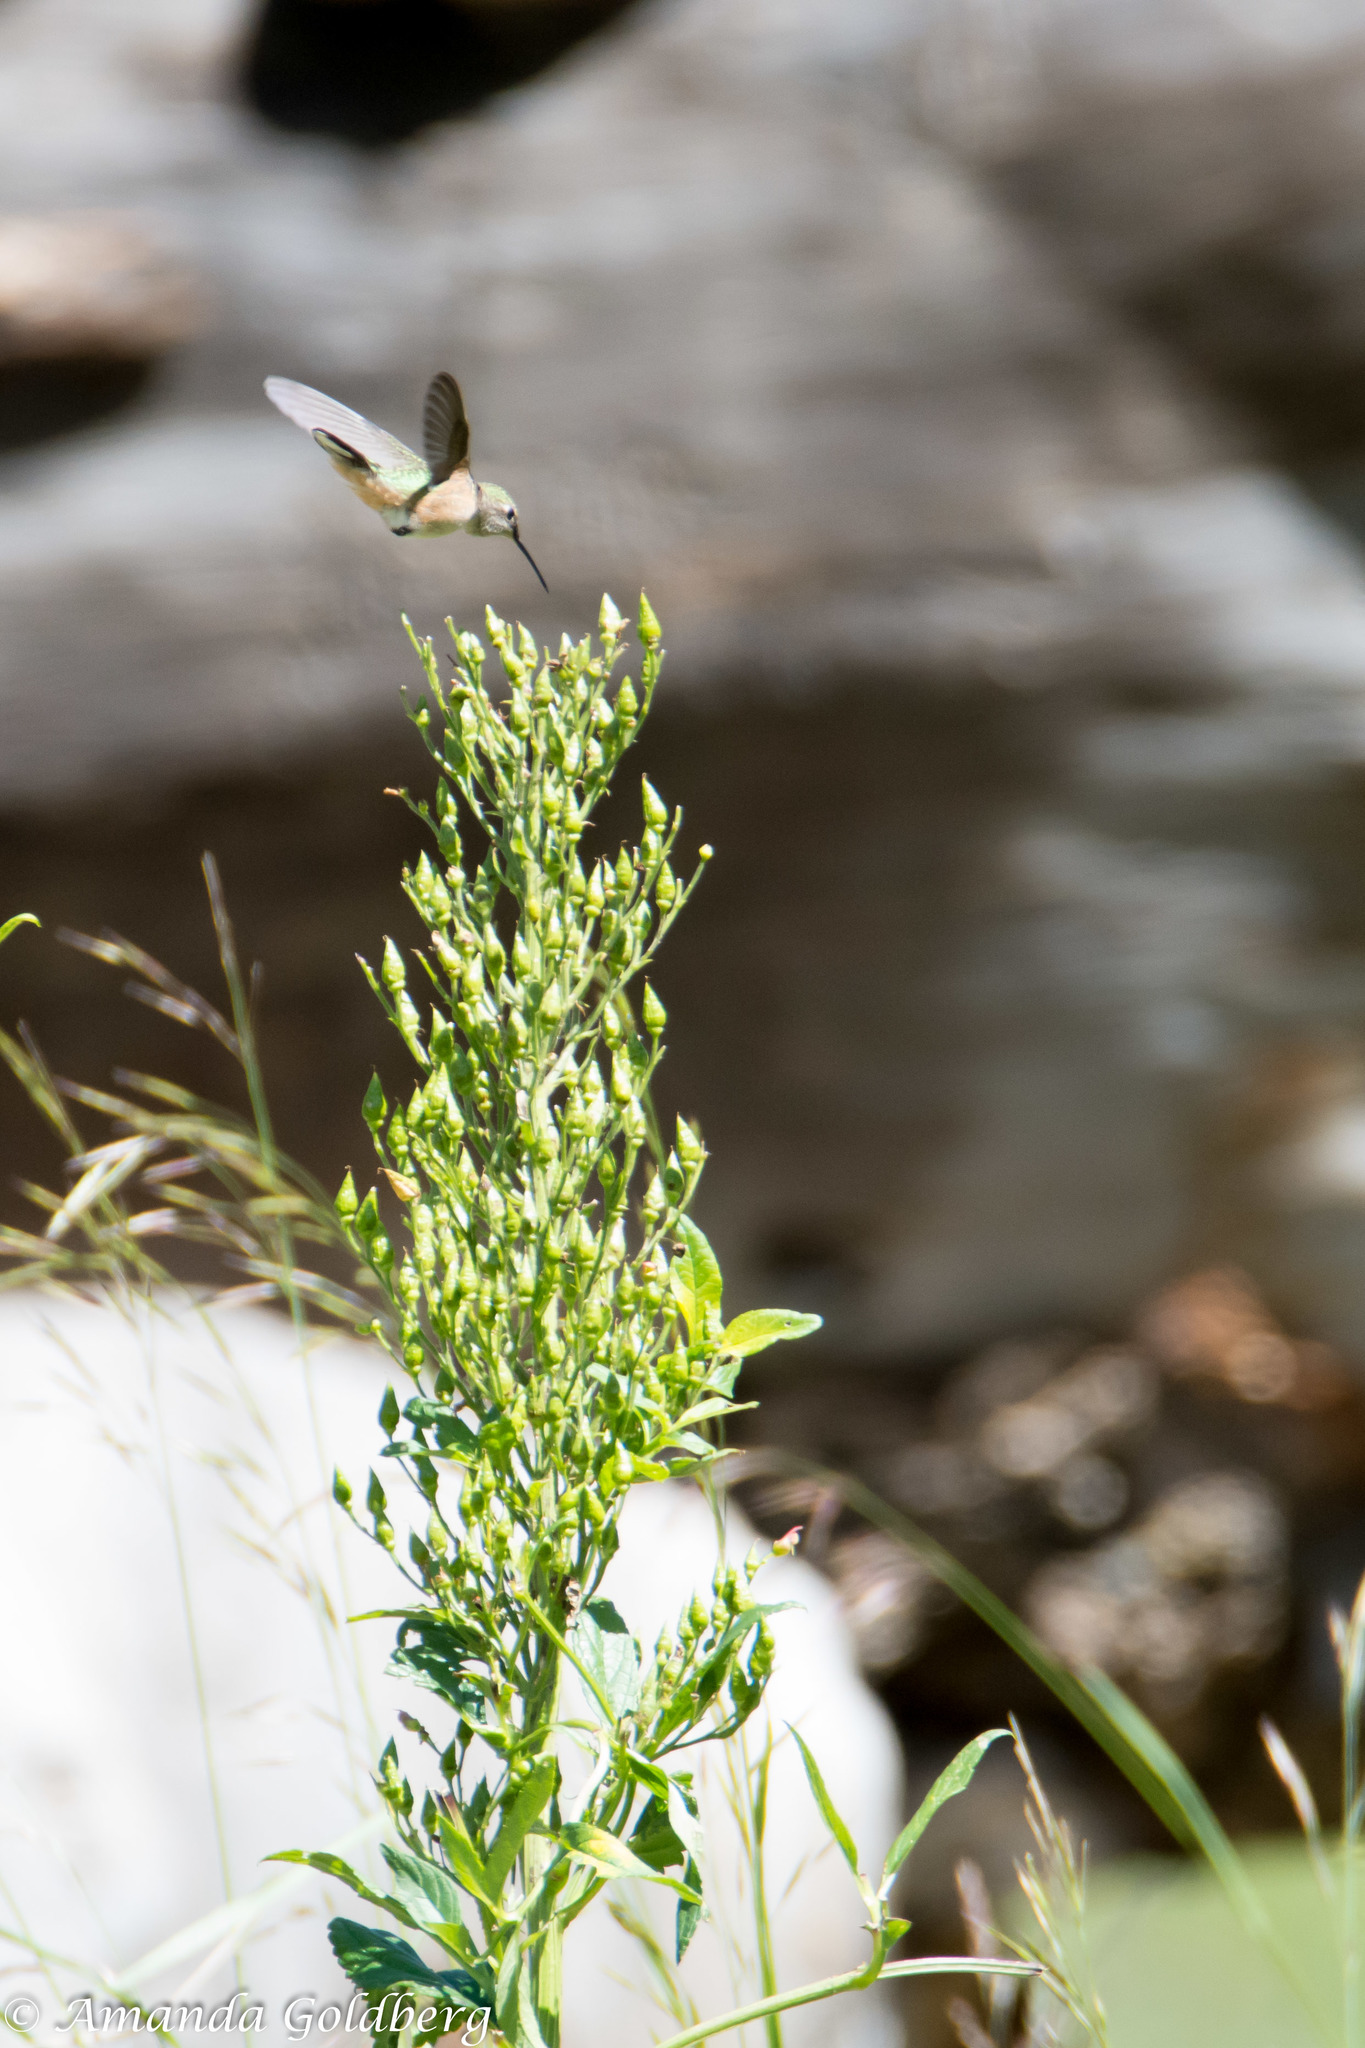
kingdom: Animalia
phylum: Chordata
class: Aves
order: Apodiformes
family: Trochilidae
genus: Selasphorus
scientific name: Selasphorus platycercus
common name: Broad-tailed hummingbird
